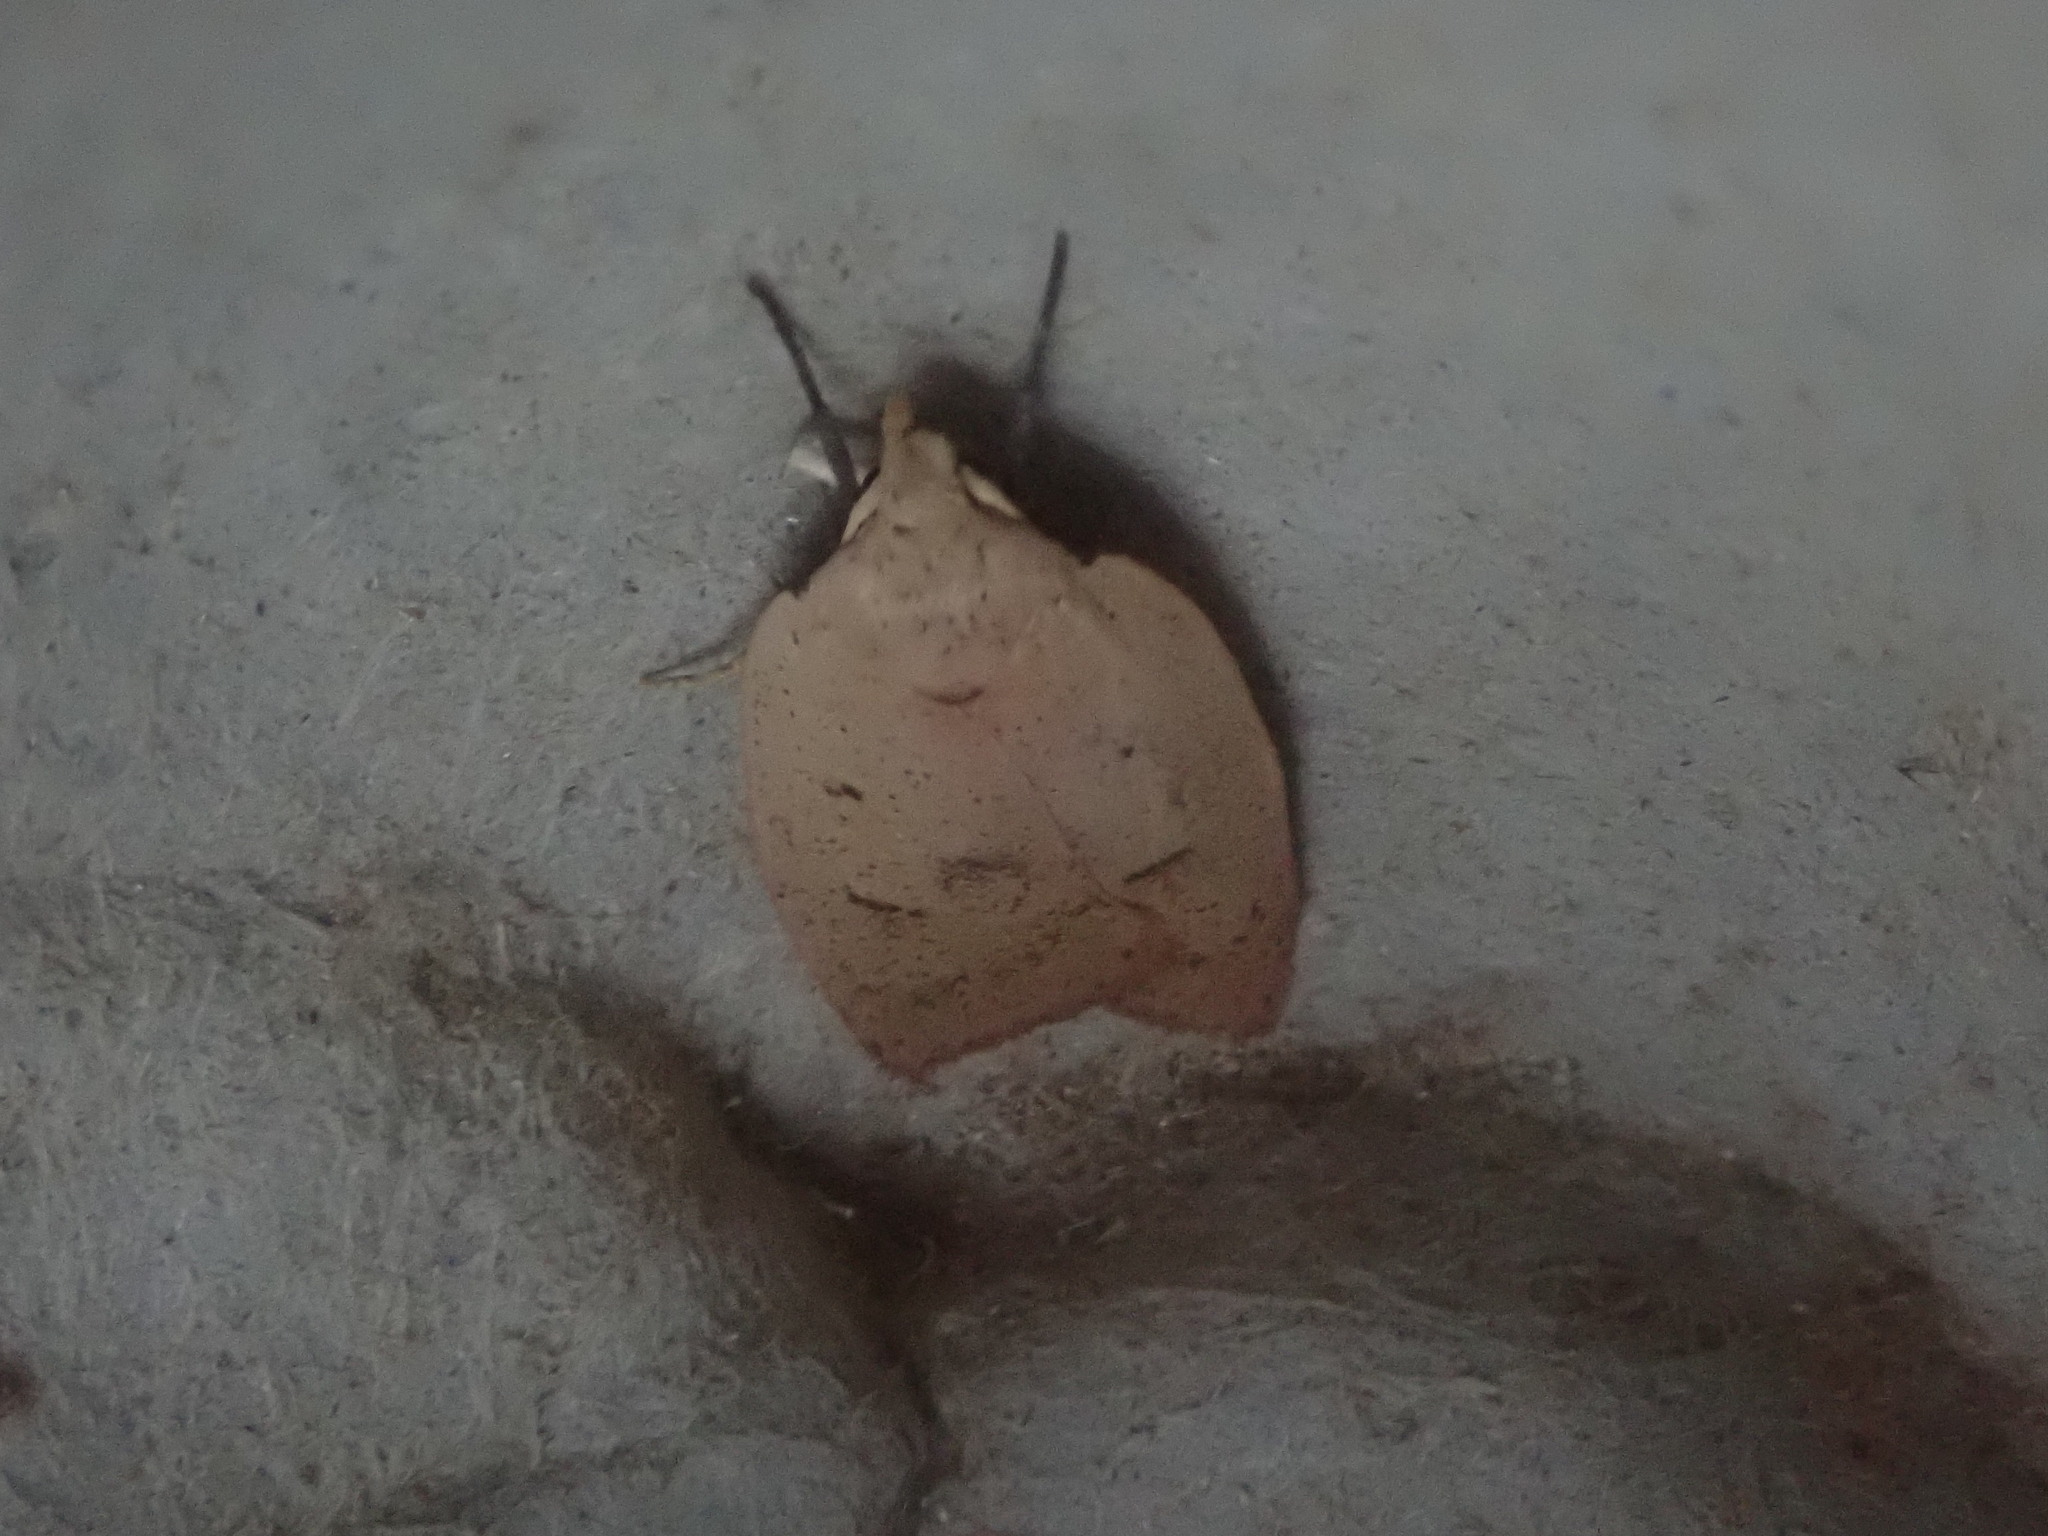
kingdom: Animalia
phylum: Arthropoda
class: Insecta
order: Lepidoptera
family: Peleopodidae
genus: Machimia
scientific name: Machimia tentoriferella
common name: Gold-striped leaftier moth
